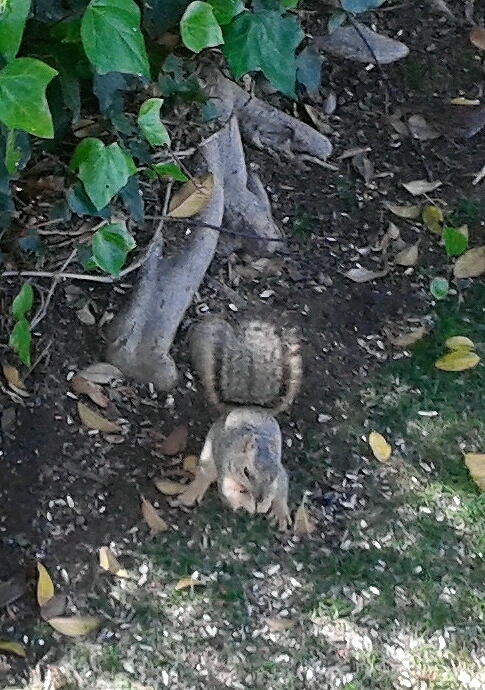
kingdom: Animalia
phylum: Chordata
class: Mammalia
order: Rodentia
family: Sciuridae
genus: Sciurus
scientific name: Sciurus niger
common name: Fox squirrel
